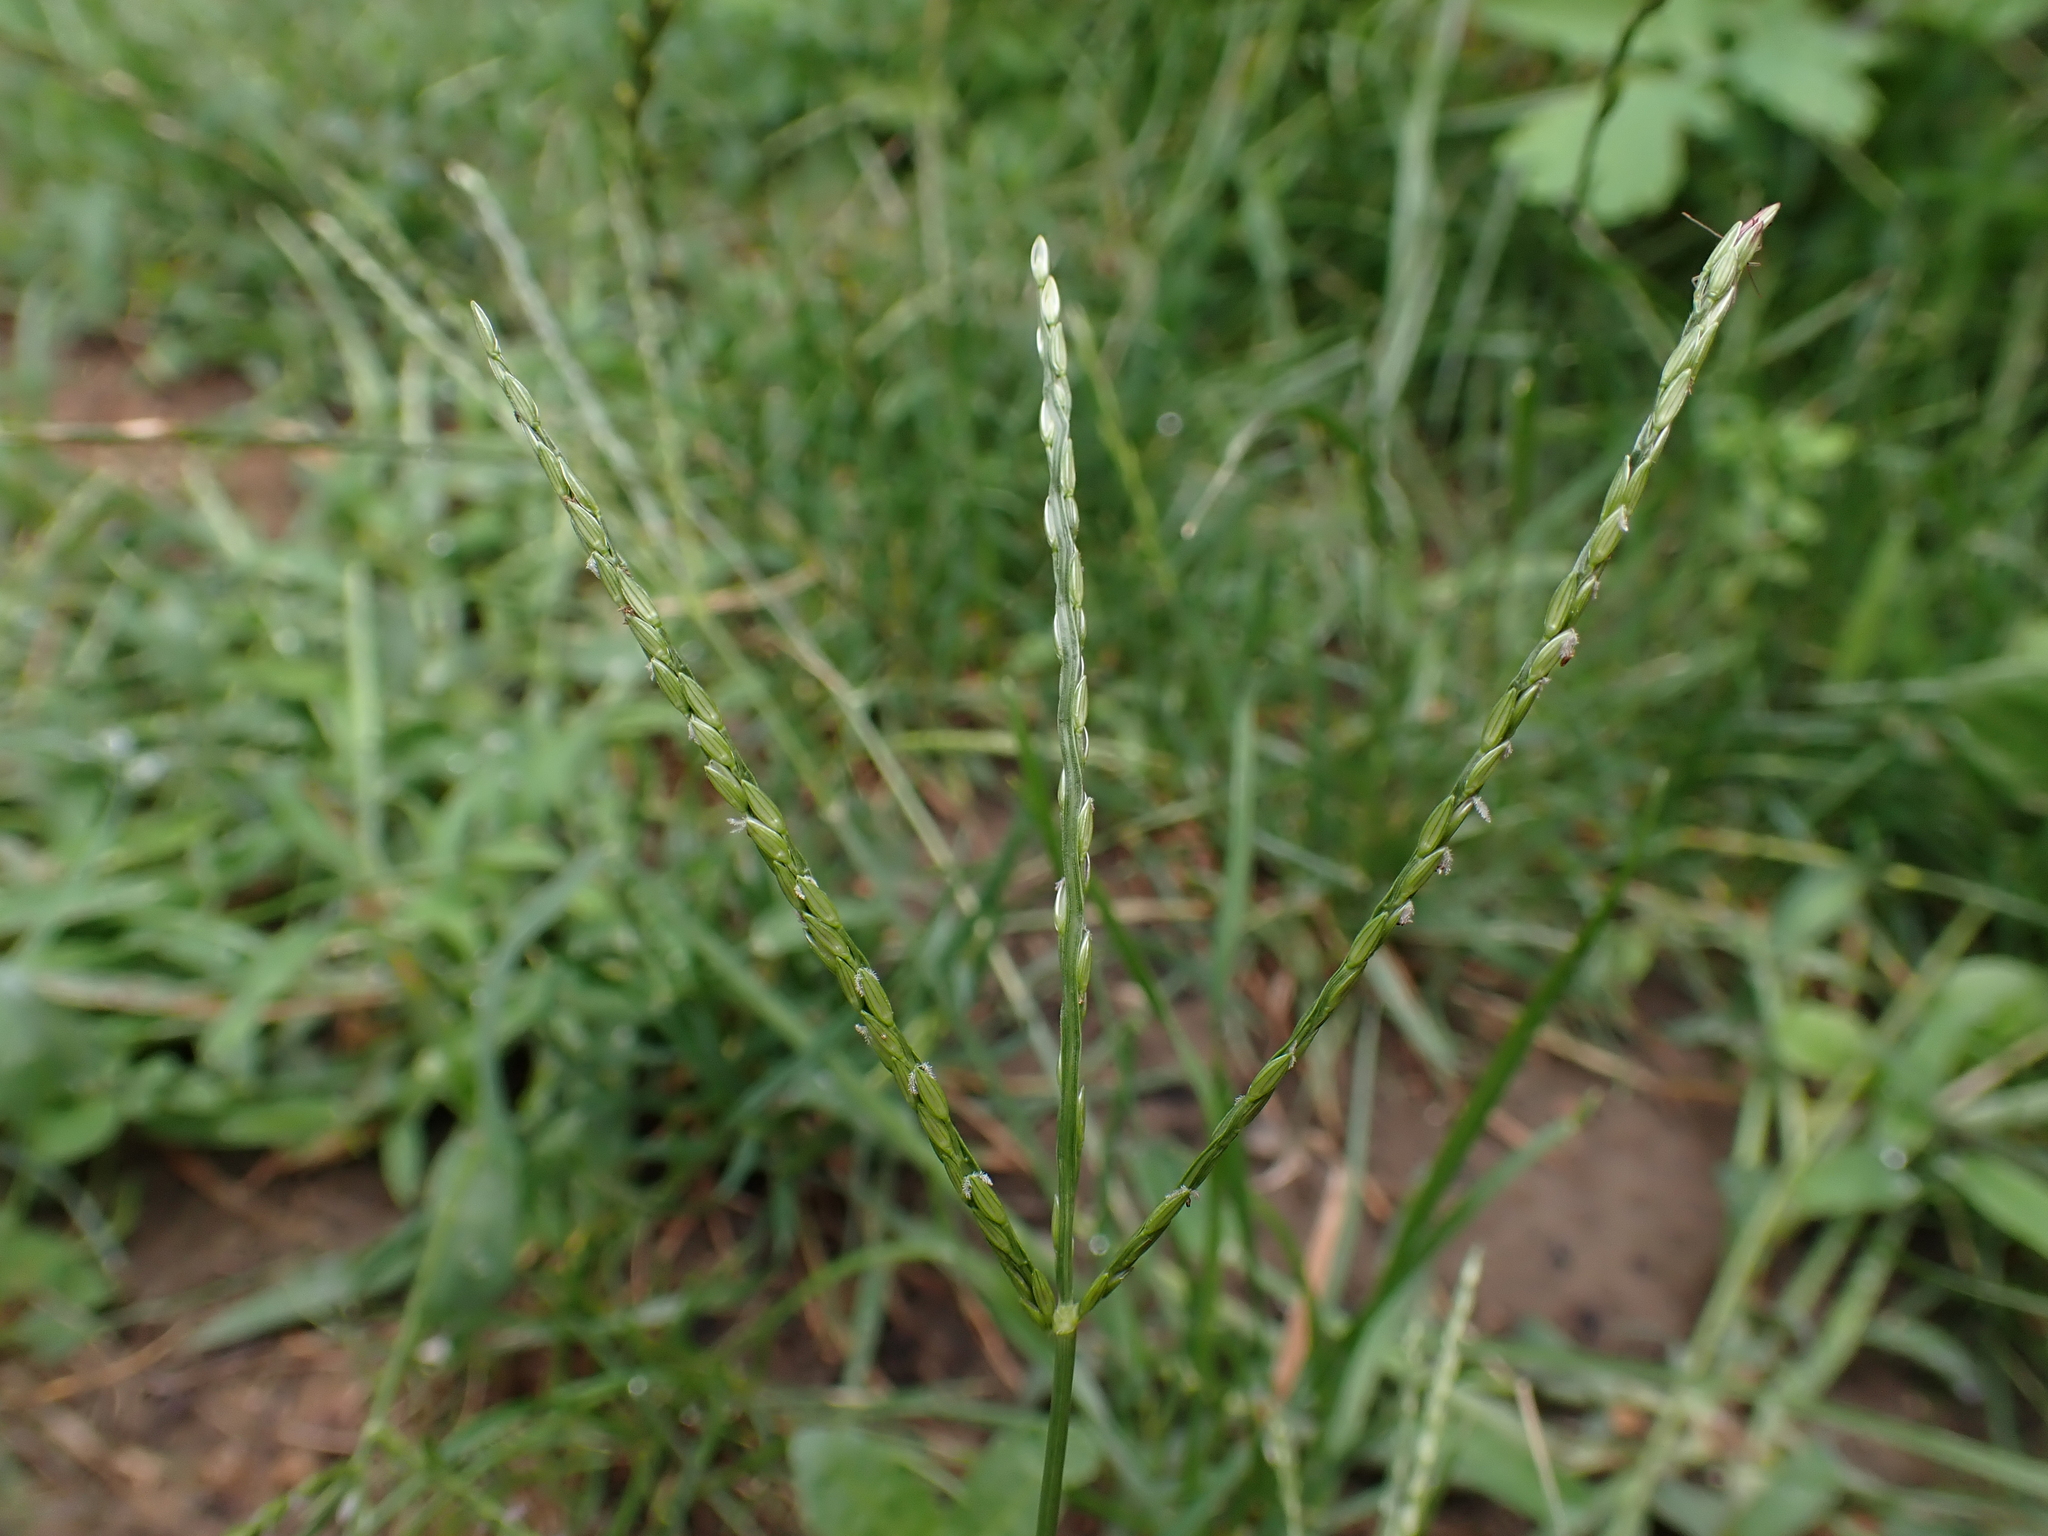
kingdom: Plantae
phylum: Tracheophyta
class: Liliopsida
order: Poales
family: Poaceae
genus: Digitaria
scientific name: Digitaria sanguinalis
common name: Hairy crabgrass
